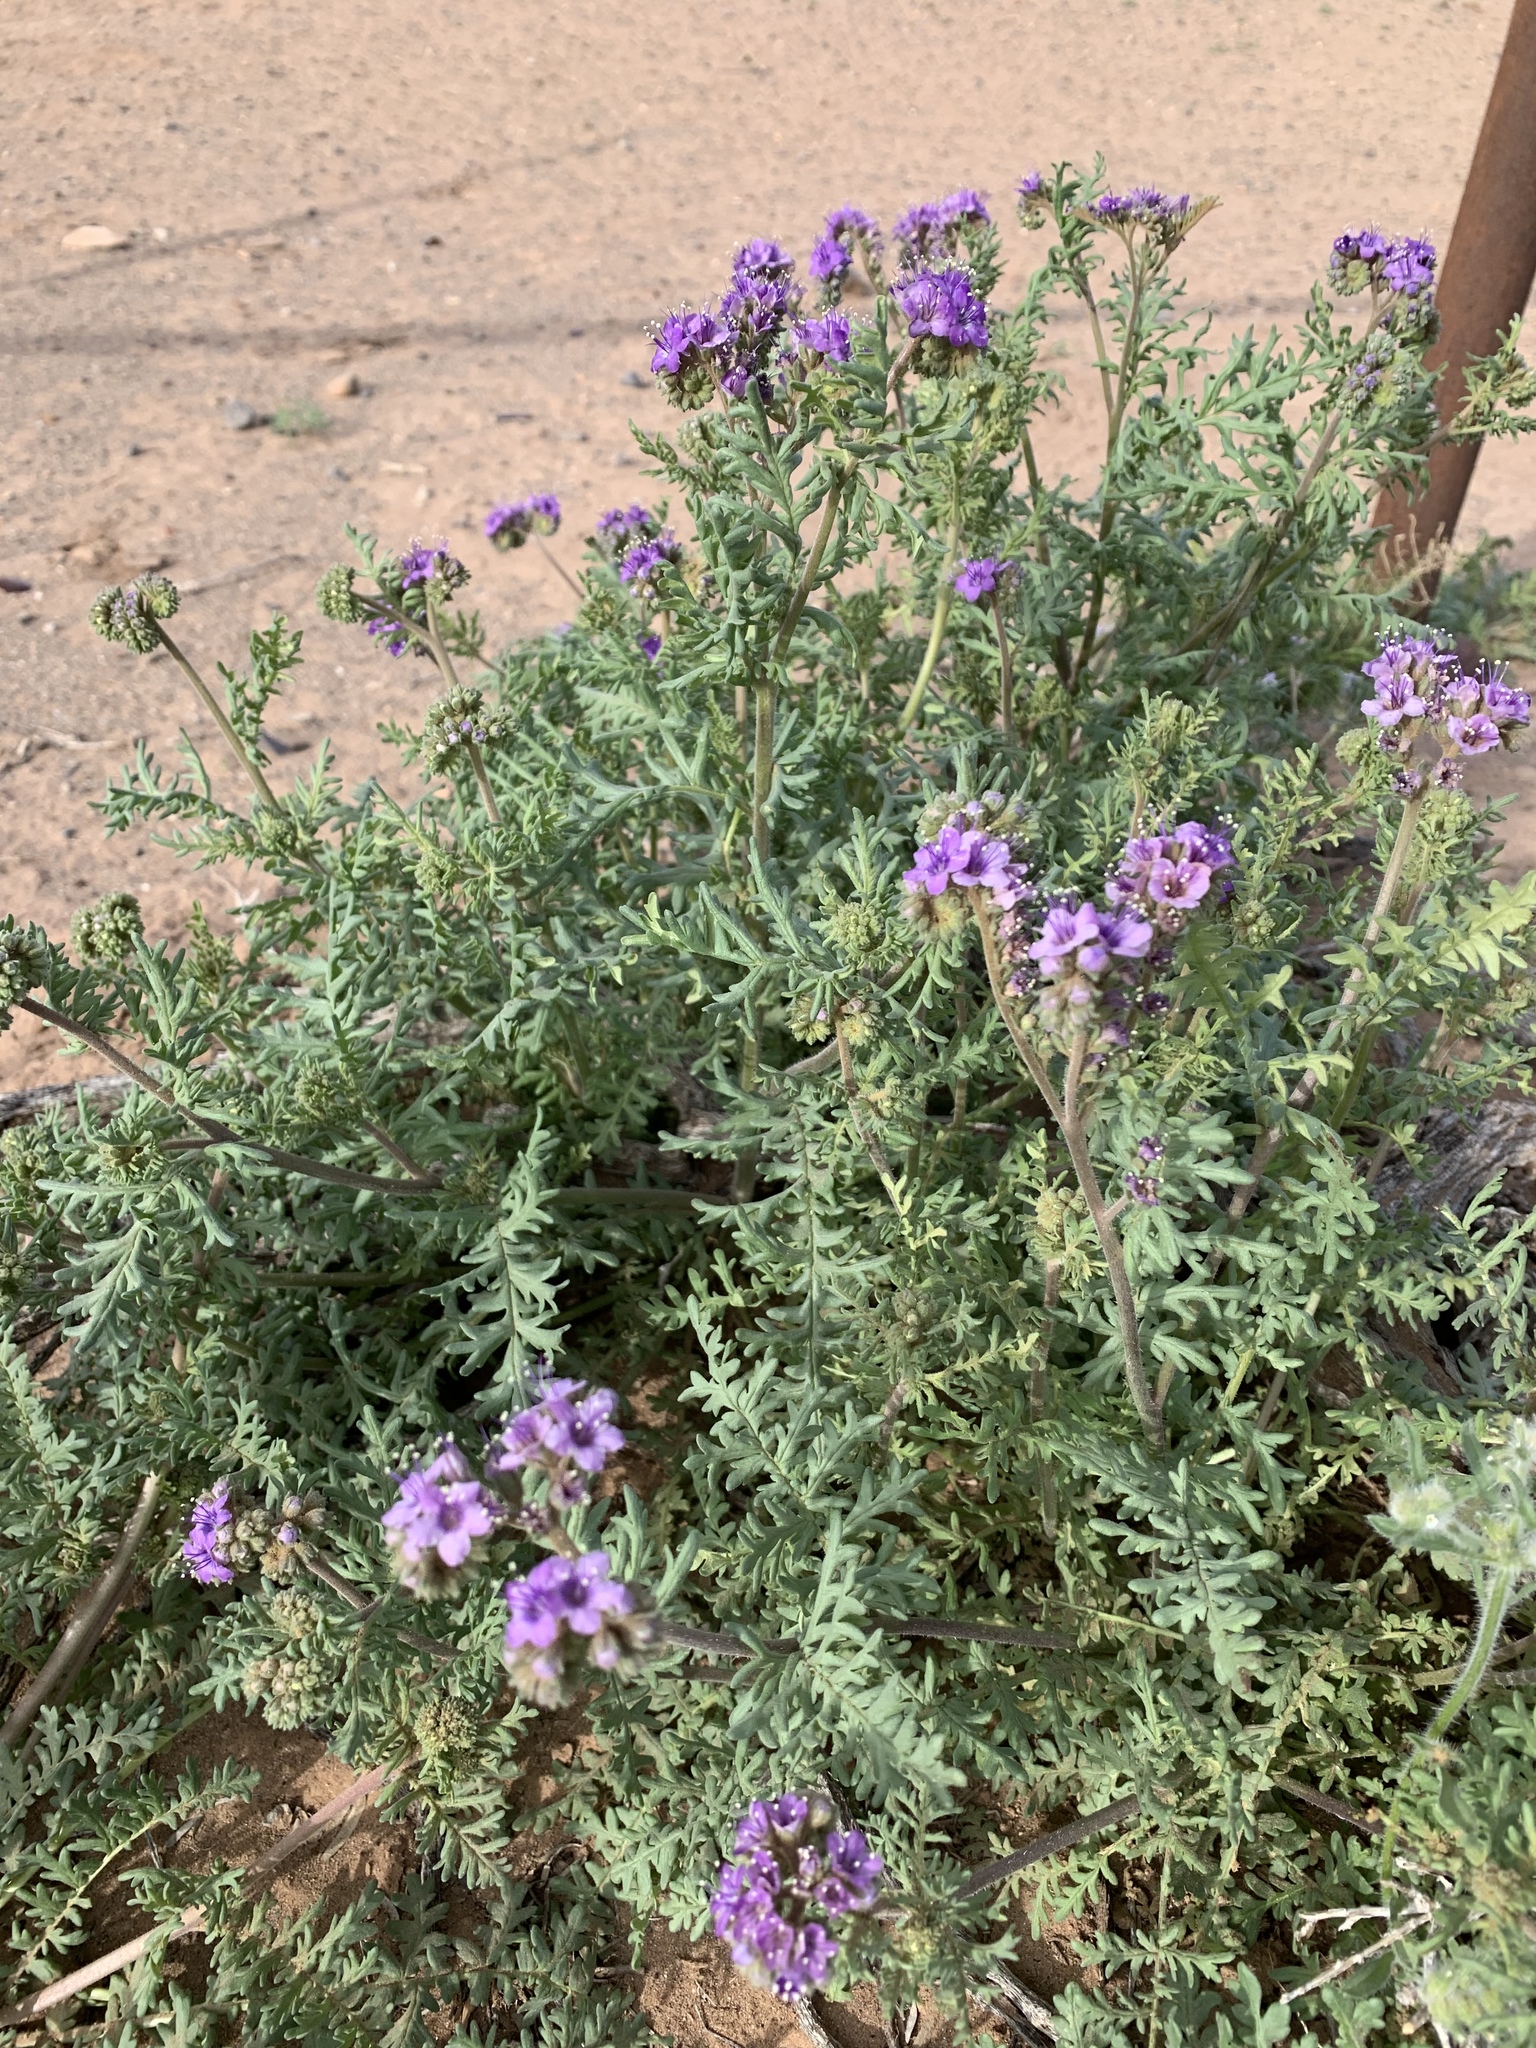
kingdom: Plantae
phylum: Tracheophyta
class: Magnoliopsida
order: Boraginales
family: Hydrophyllaceae
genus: Phacelia
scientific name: Phacelia popei
